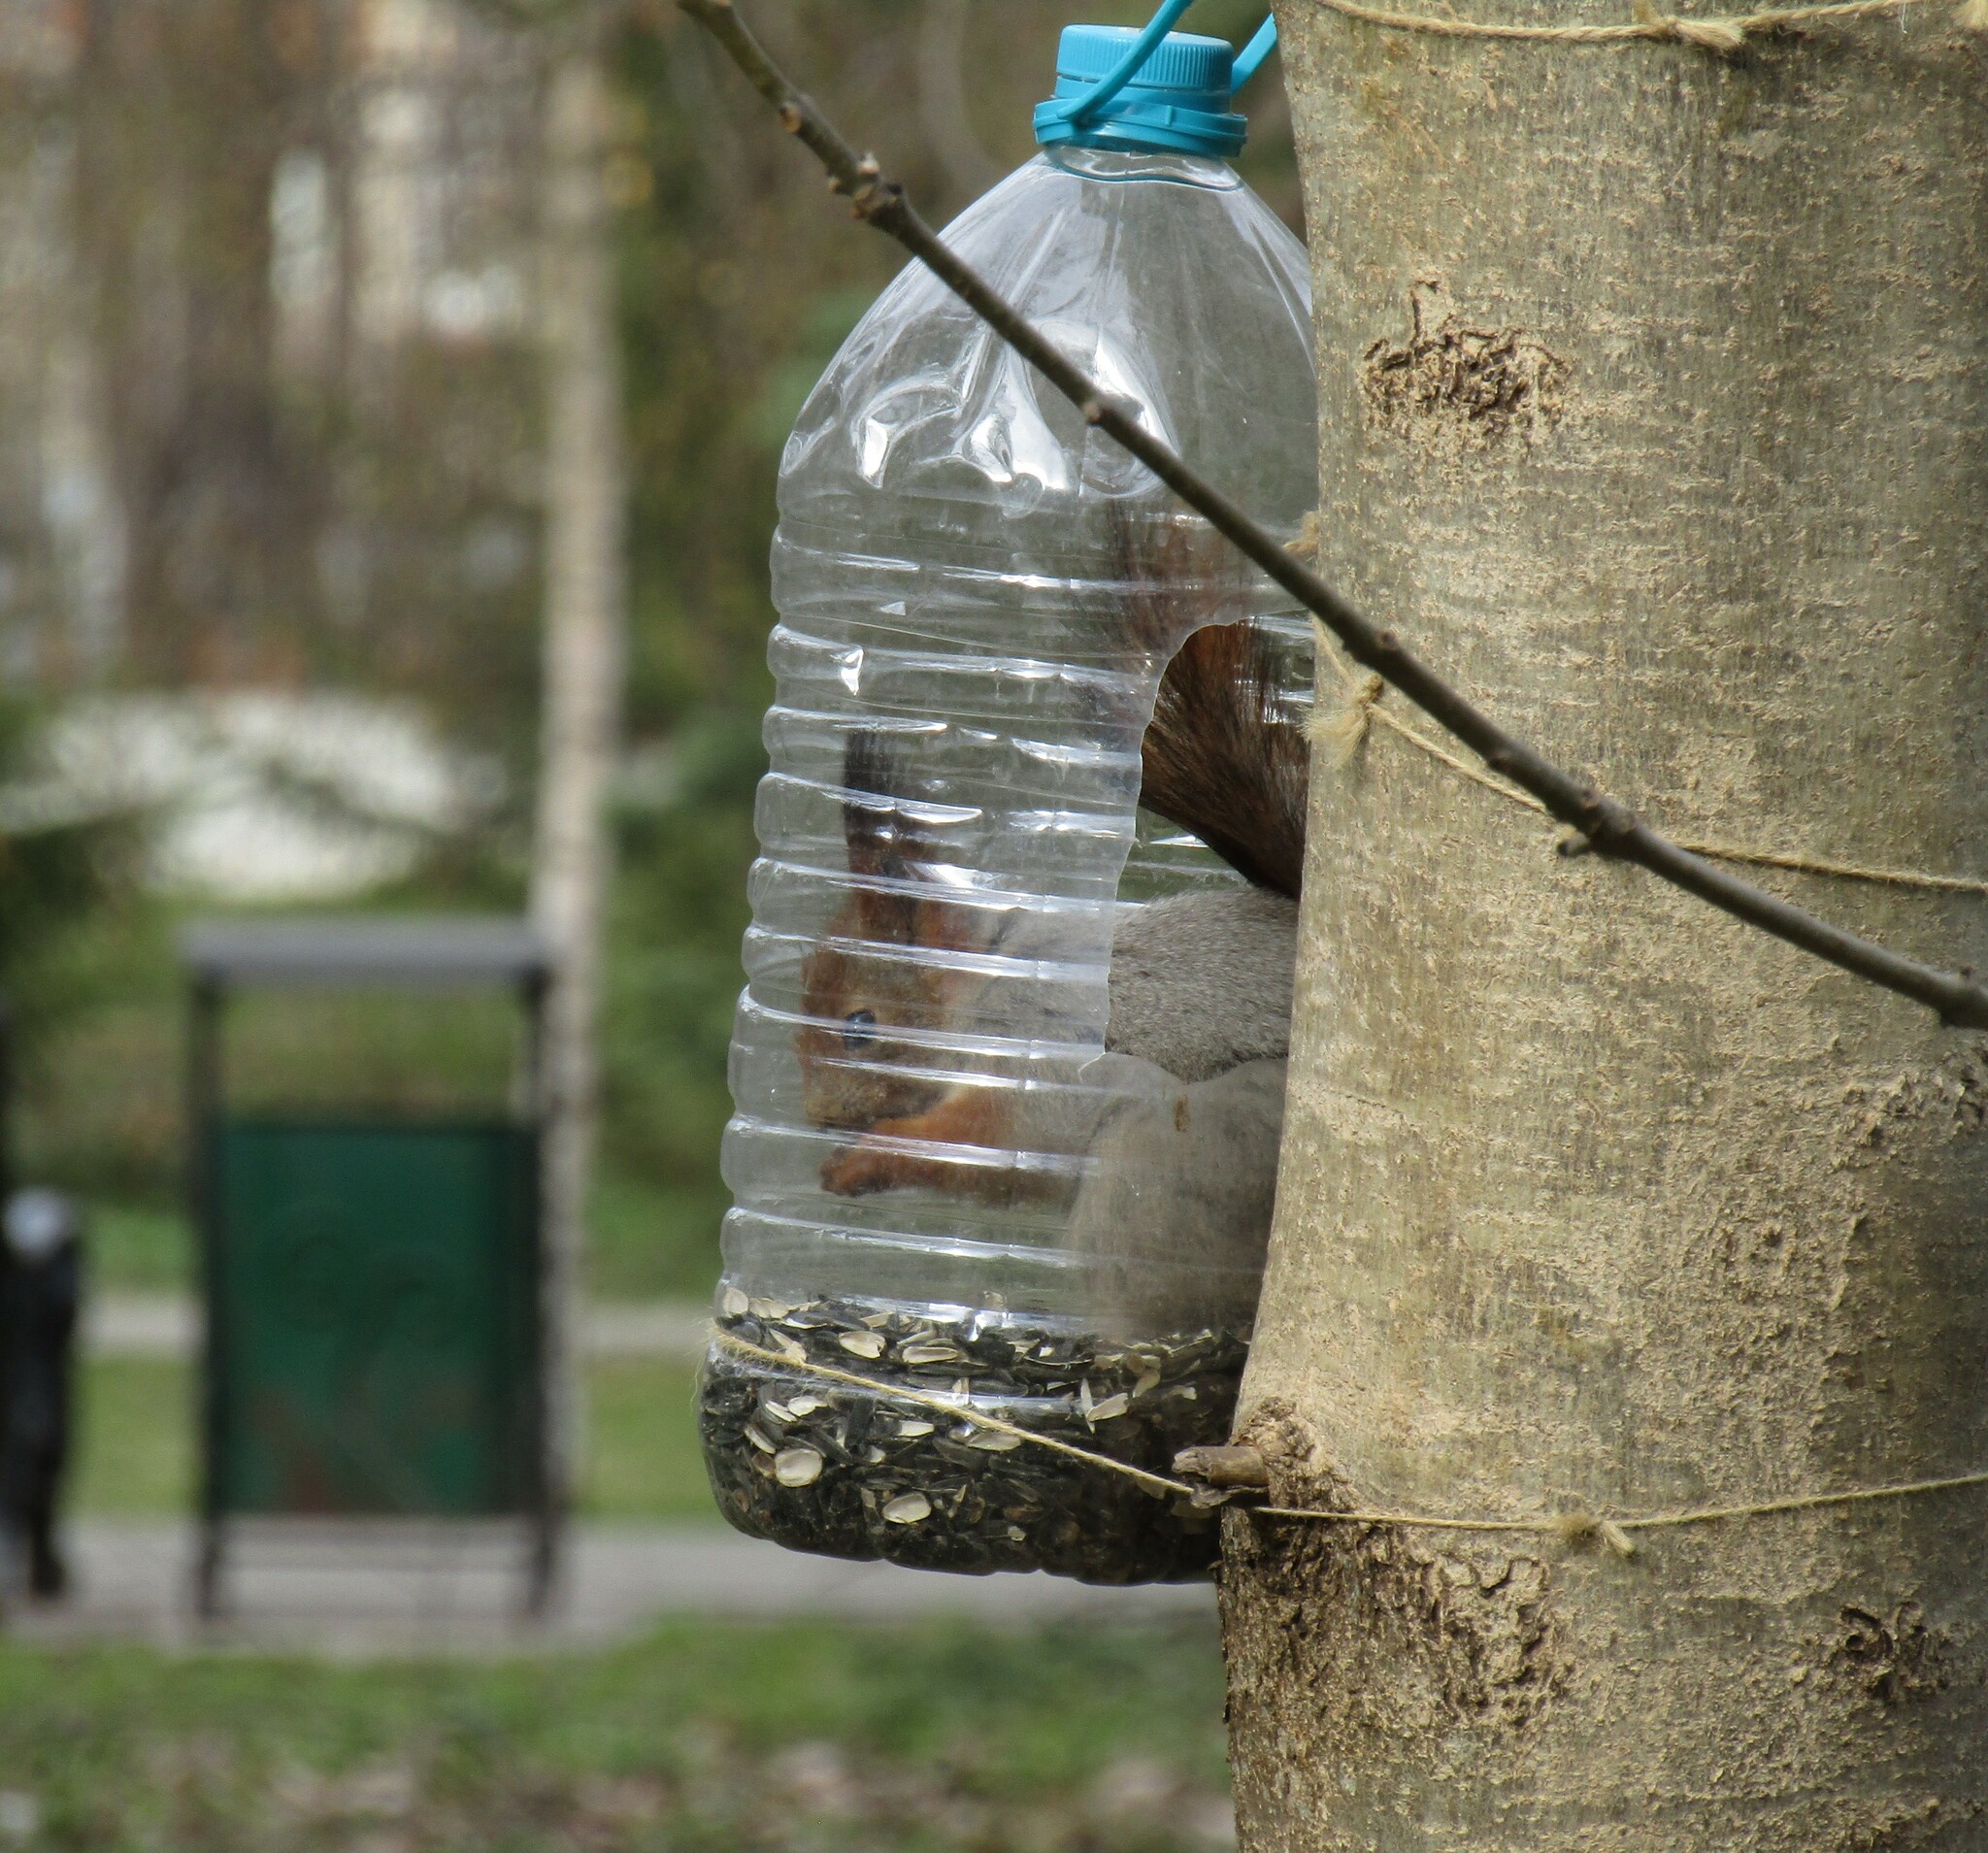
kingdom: Animalia
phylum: Chordata
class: Mammalia
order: Rodentia
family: Sciuridae
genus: Sciurus
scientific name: Sciurus vulgaris
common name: Eurasian red squirrel
